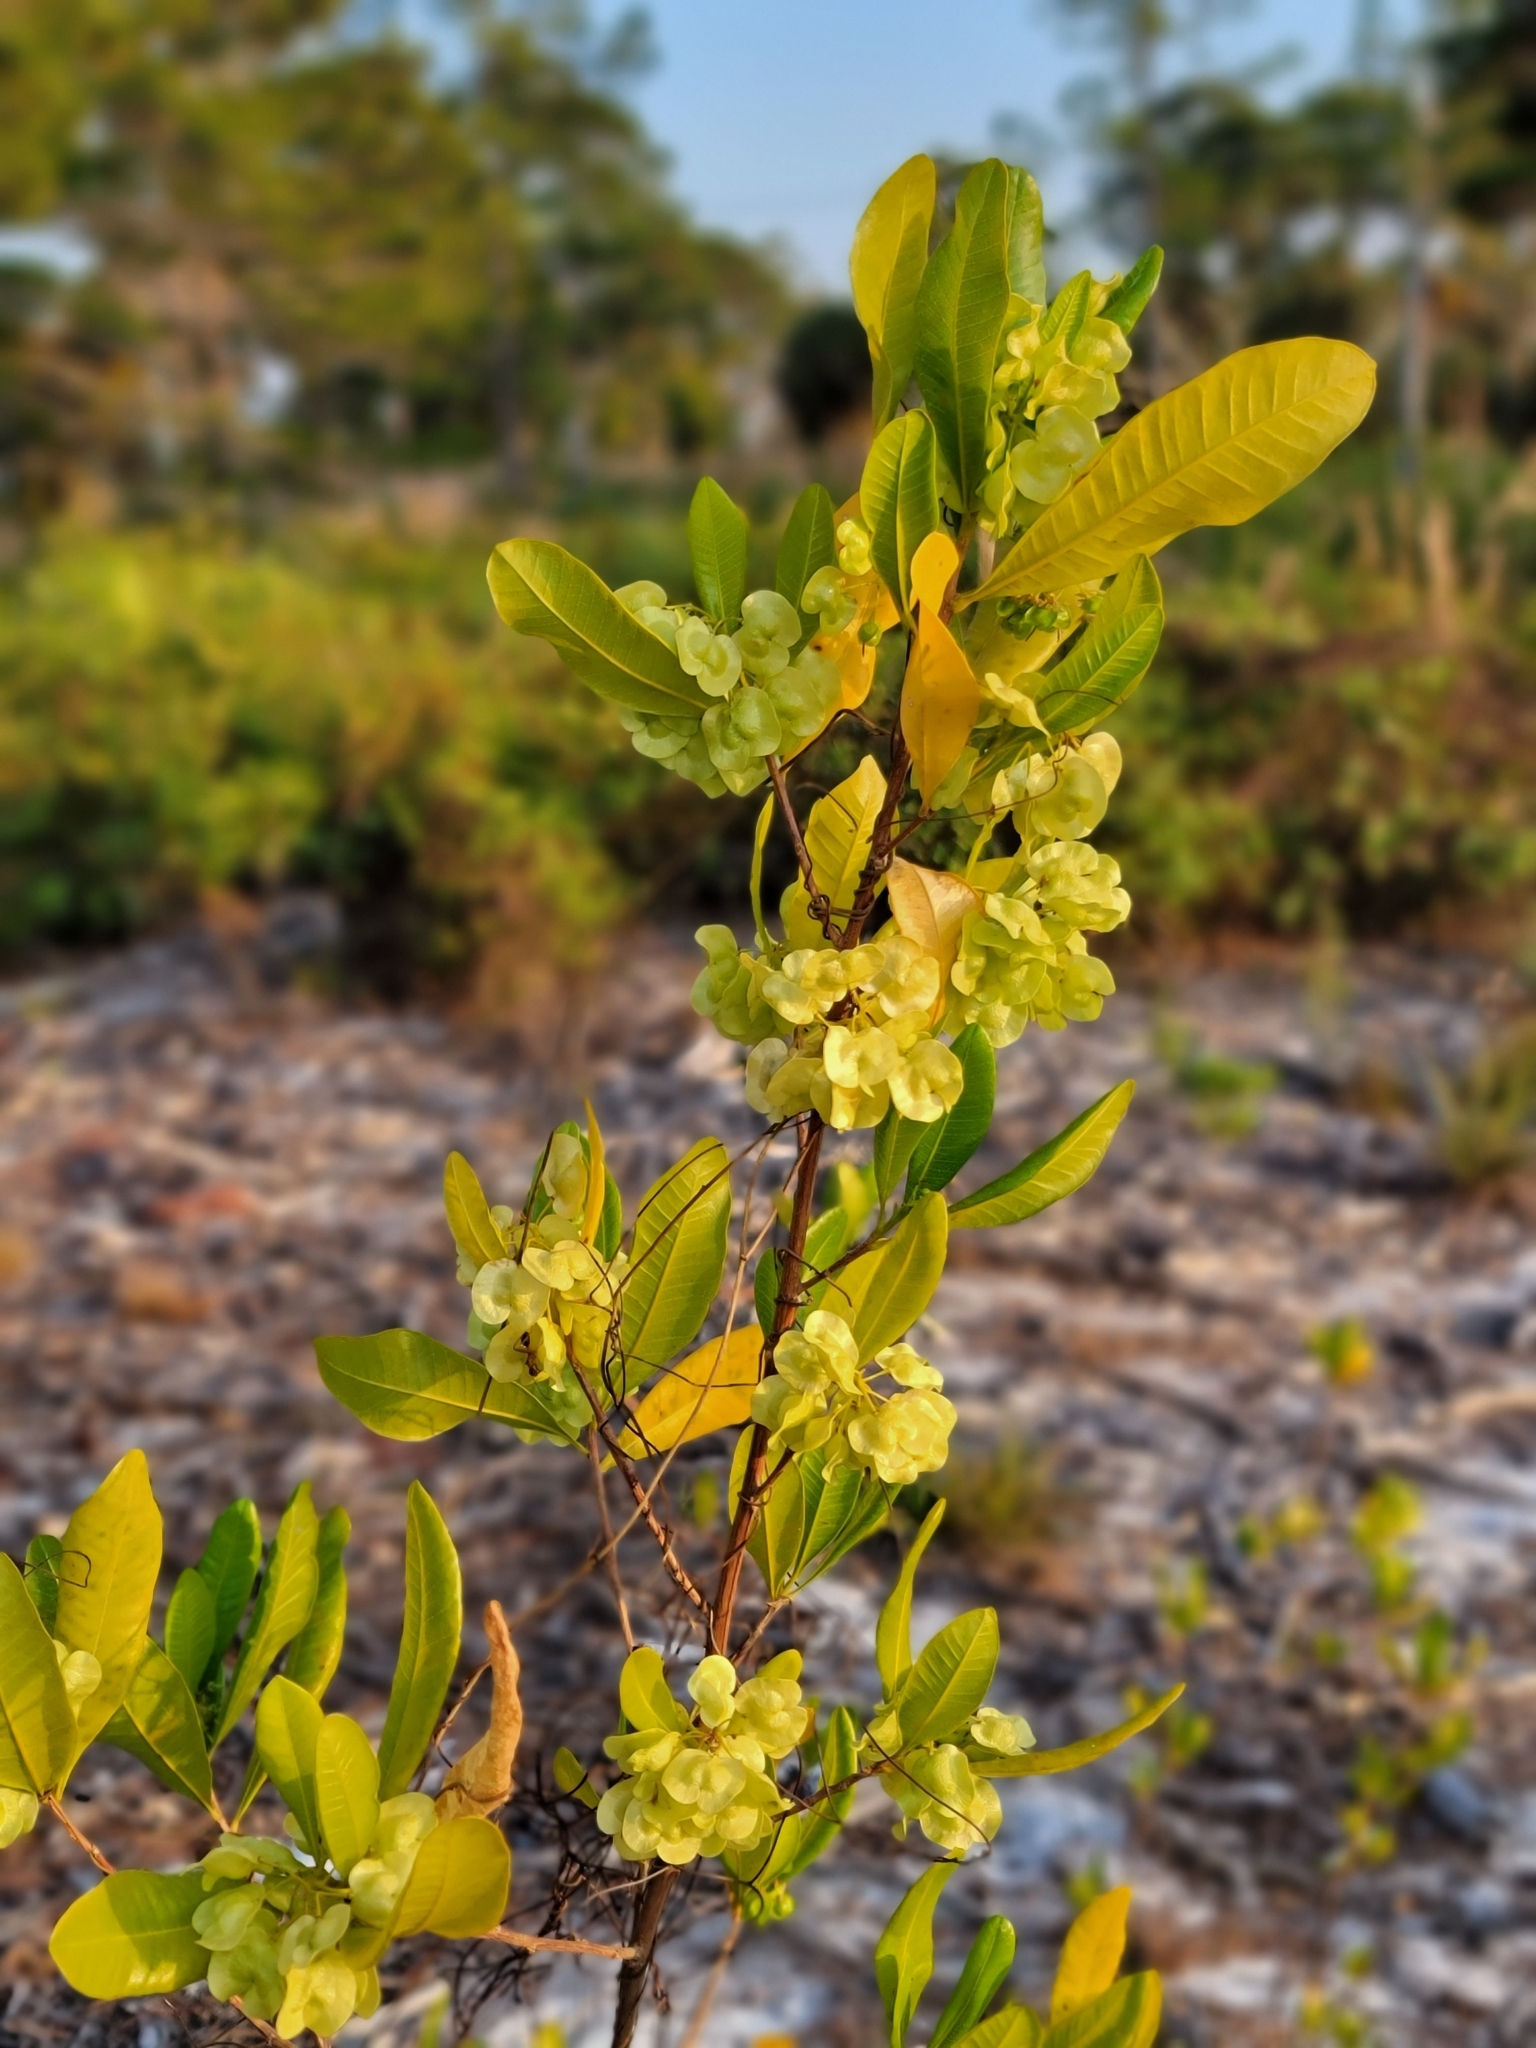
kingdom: Plantae
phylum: Tracheophyta
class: Magnoliopsida
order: Sapindales
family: Sapindaceae
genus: Dodonaea
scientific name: Dodonaea viscosa
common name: Hopbush
